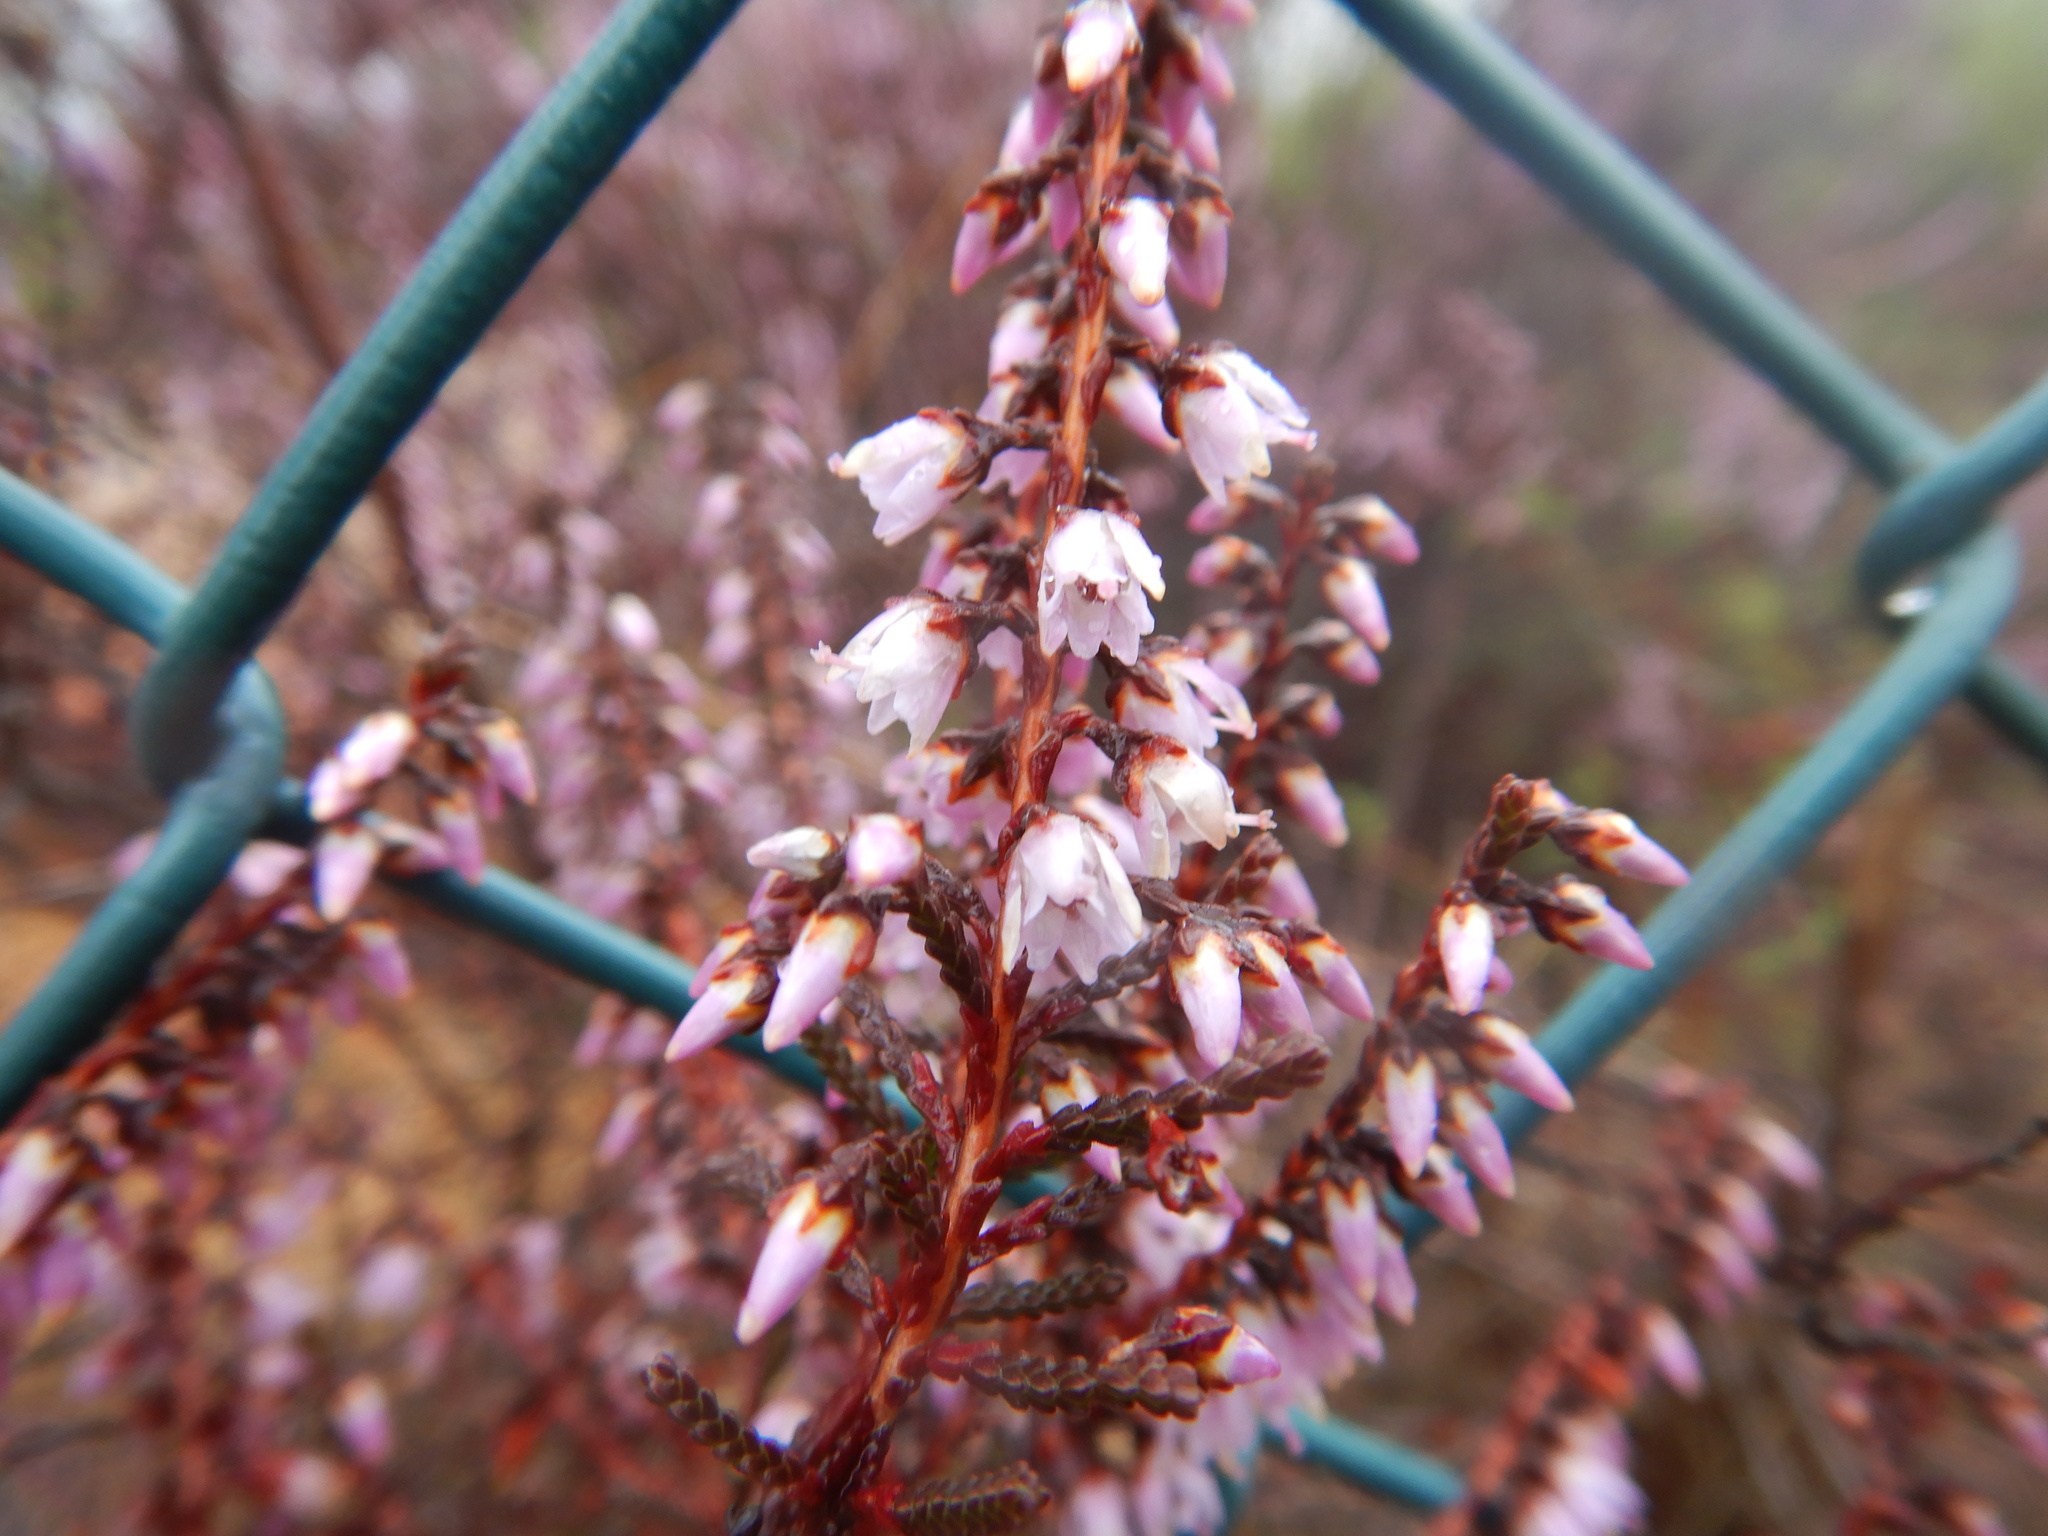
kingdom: Plantae
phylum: Tracheophyta
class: Magnoliopsida
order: Ericales
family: Ericaceae
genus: Calluna
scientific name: Calluna vulgaris
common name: Heather
